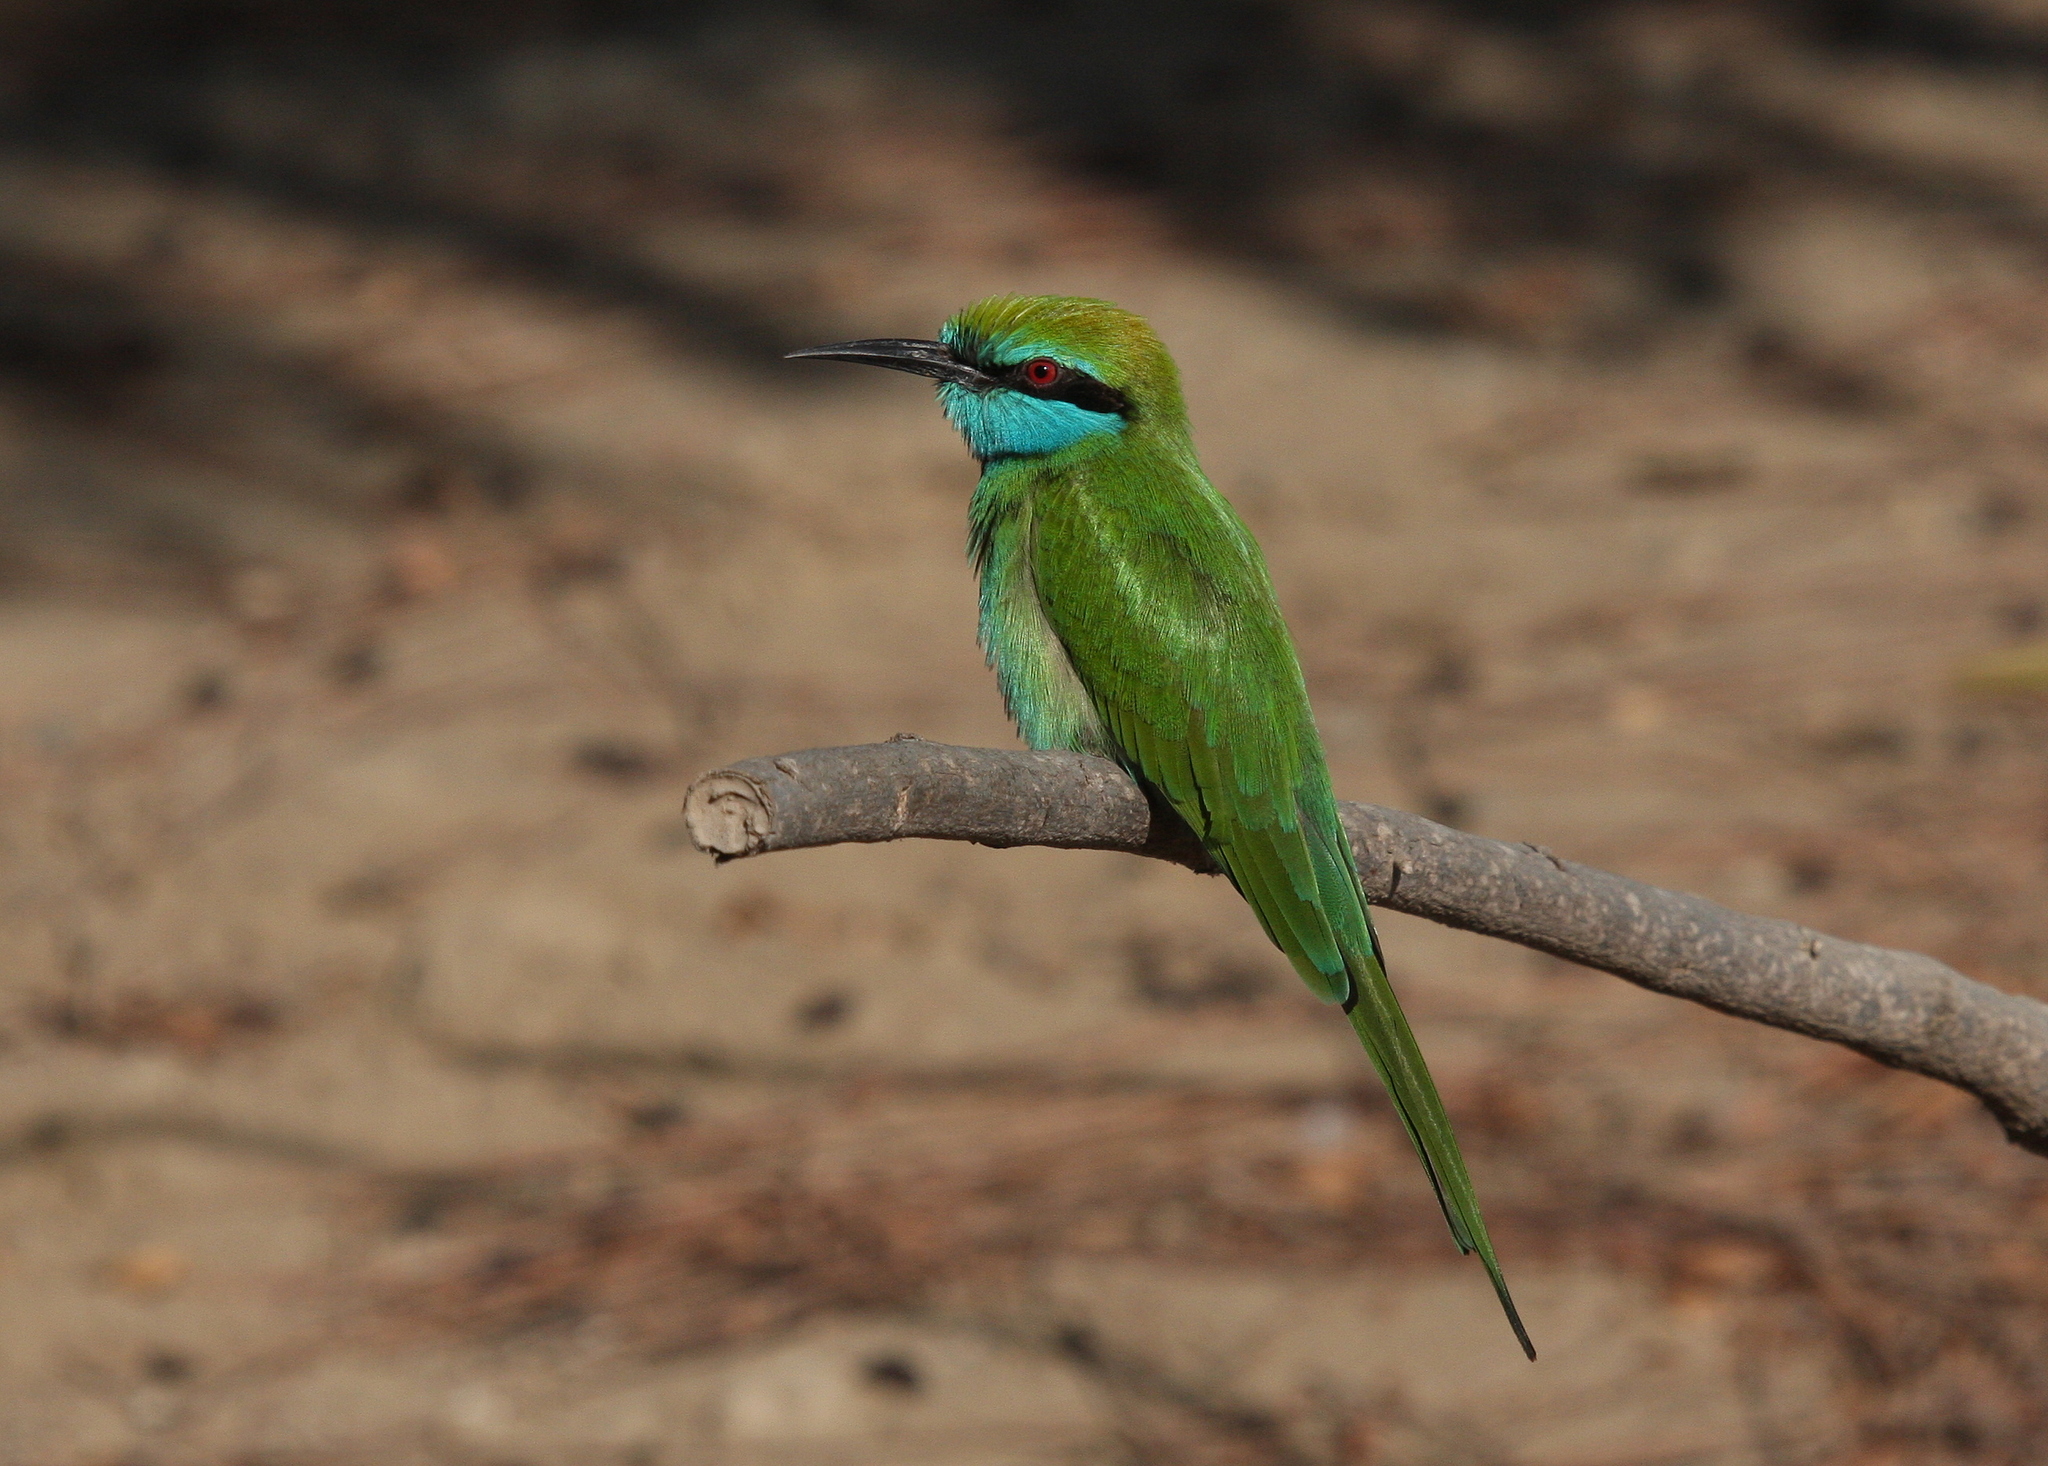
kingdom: Animalia
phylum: Chordata
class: Aves
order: Coraciiformes
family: Meropidae
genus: Merops
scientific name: Merops cyanophrys
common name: Arabian green bee-eater
